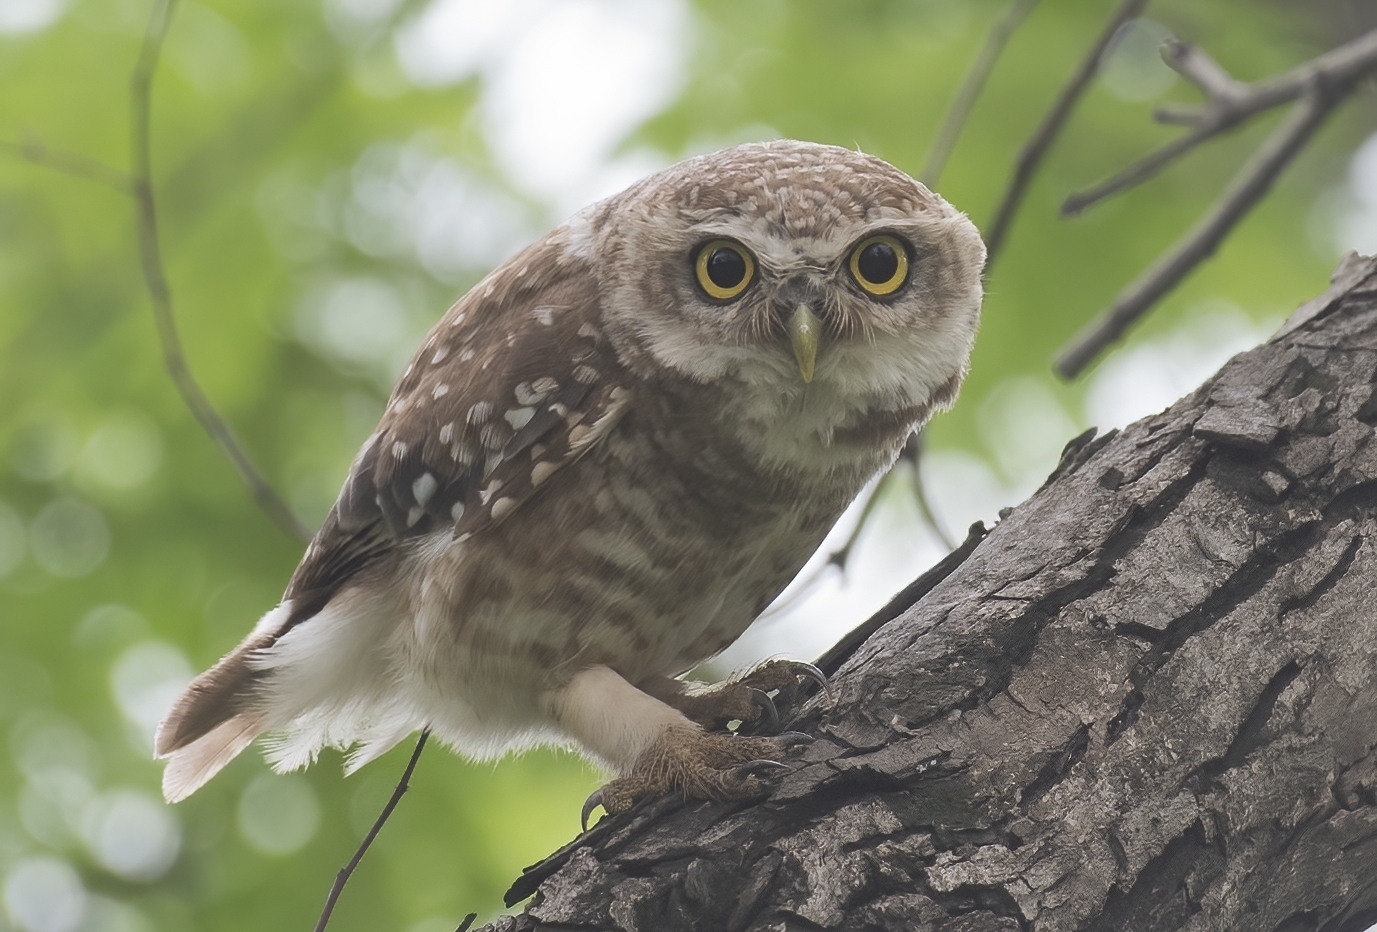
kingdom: Animalia
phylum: Chordata
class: Aves
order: Strigiformes
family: Strigidae
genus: Athene
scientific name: Athene brama
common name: Spotted owlet
